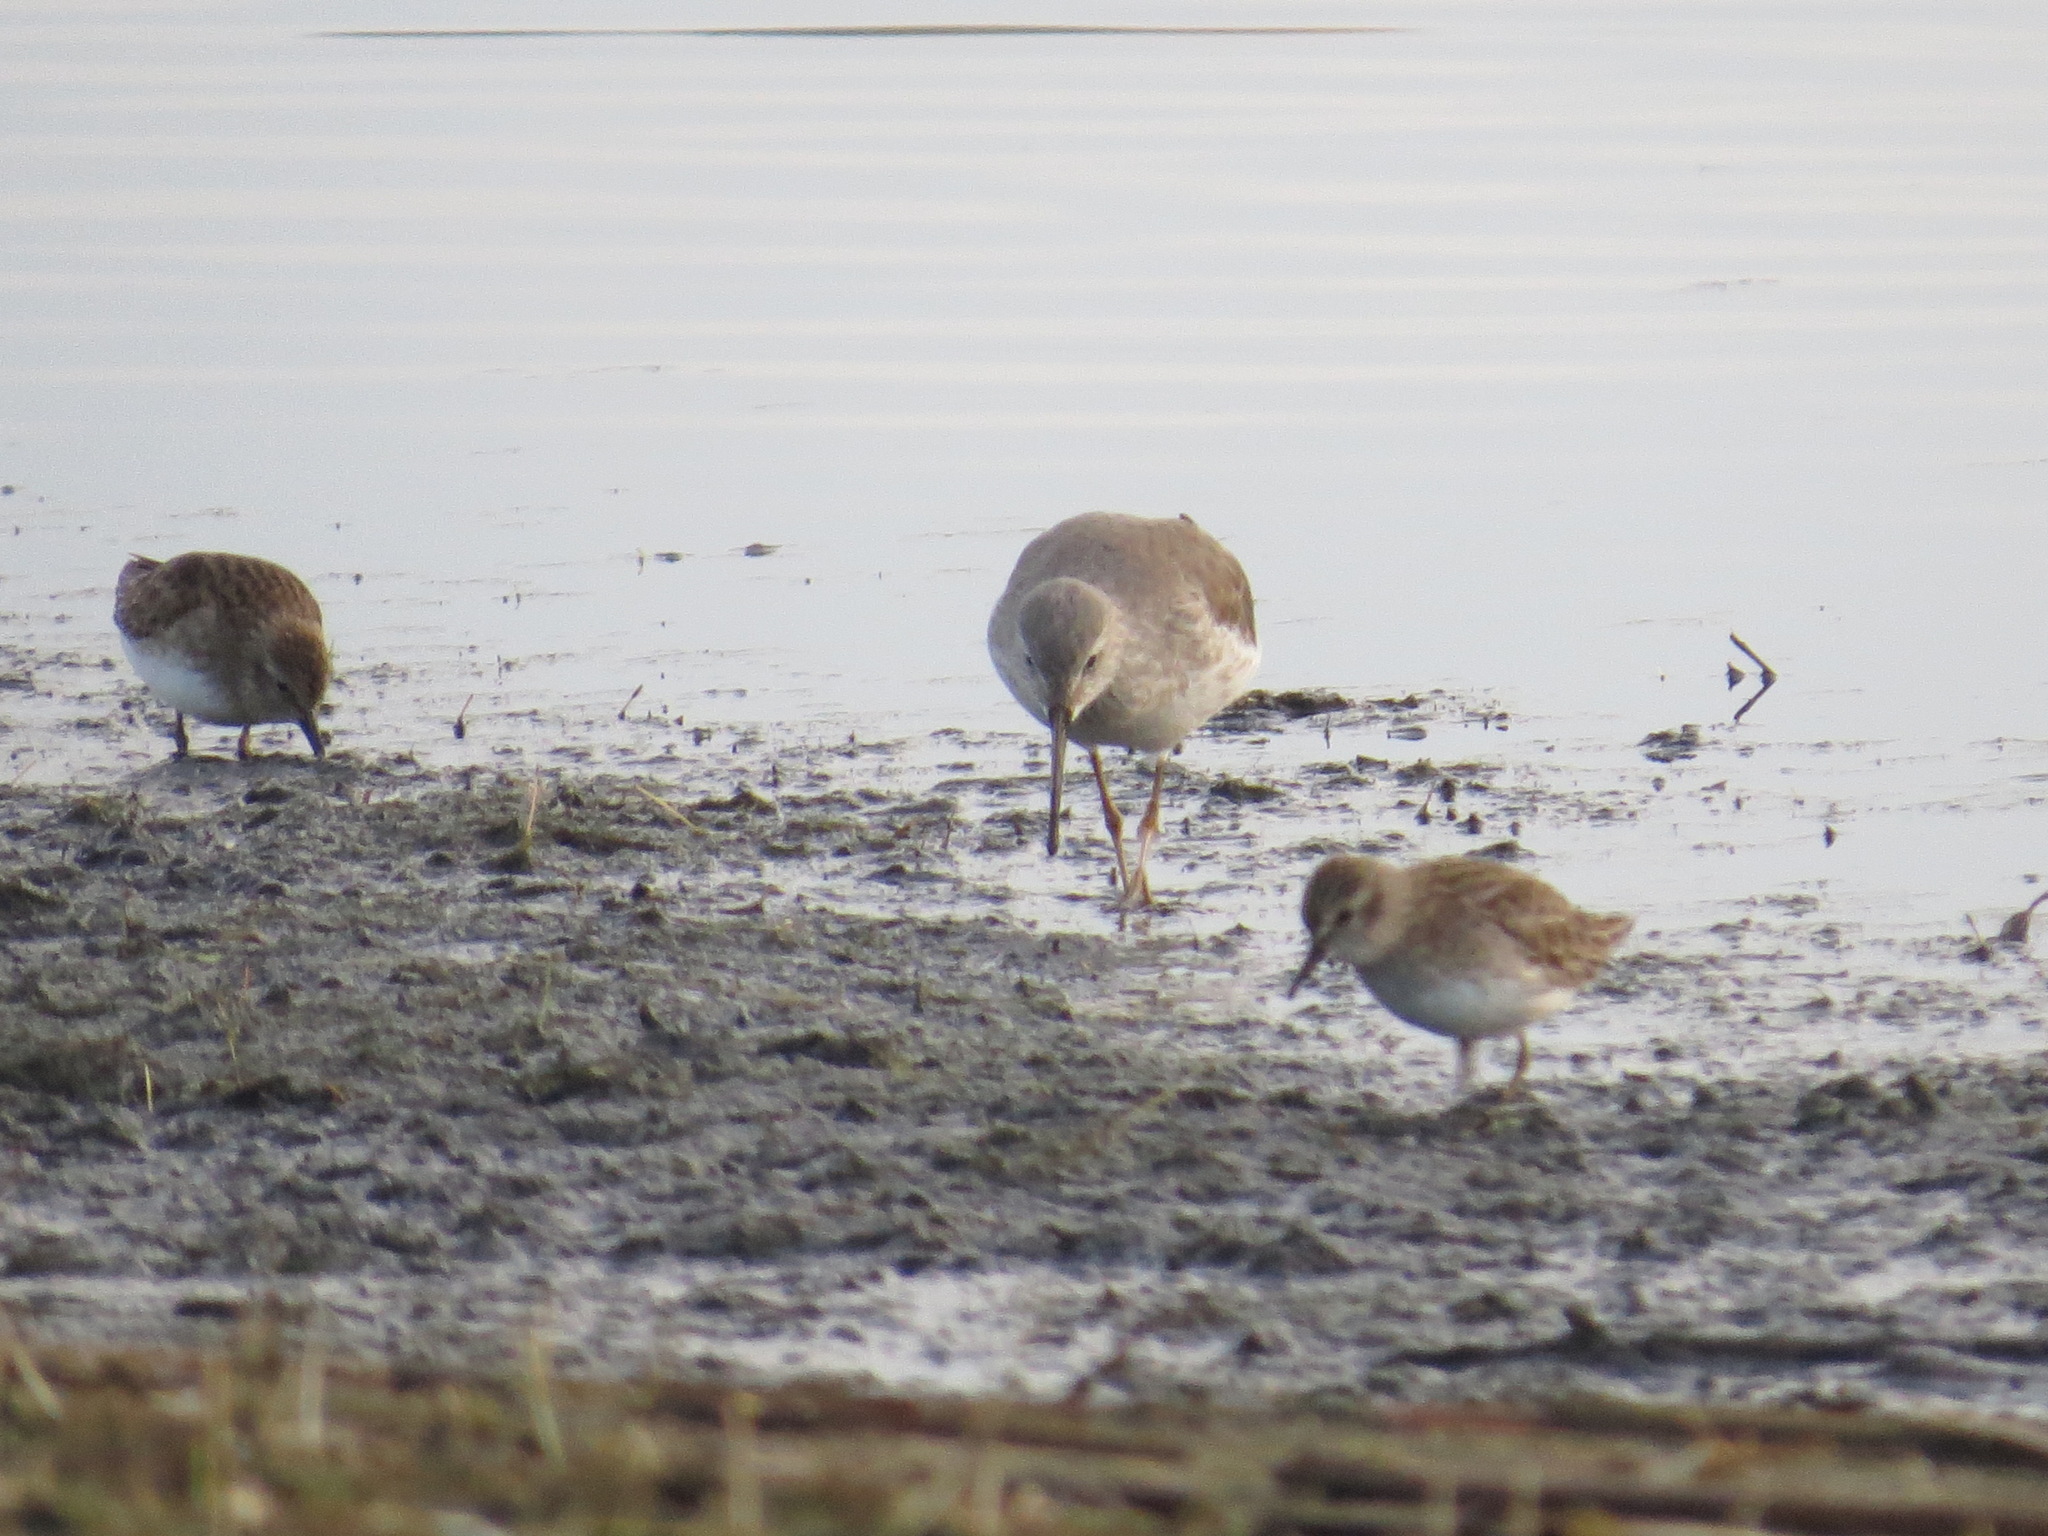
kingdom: Animalia
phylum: Chordata
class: Aves
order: Charadriiformes
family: Scolopacidae
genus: Calidris
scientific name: Calidris himantopus
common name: Stilt sandpiper
